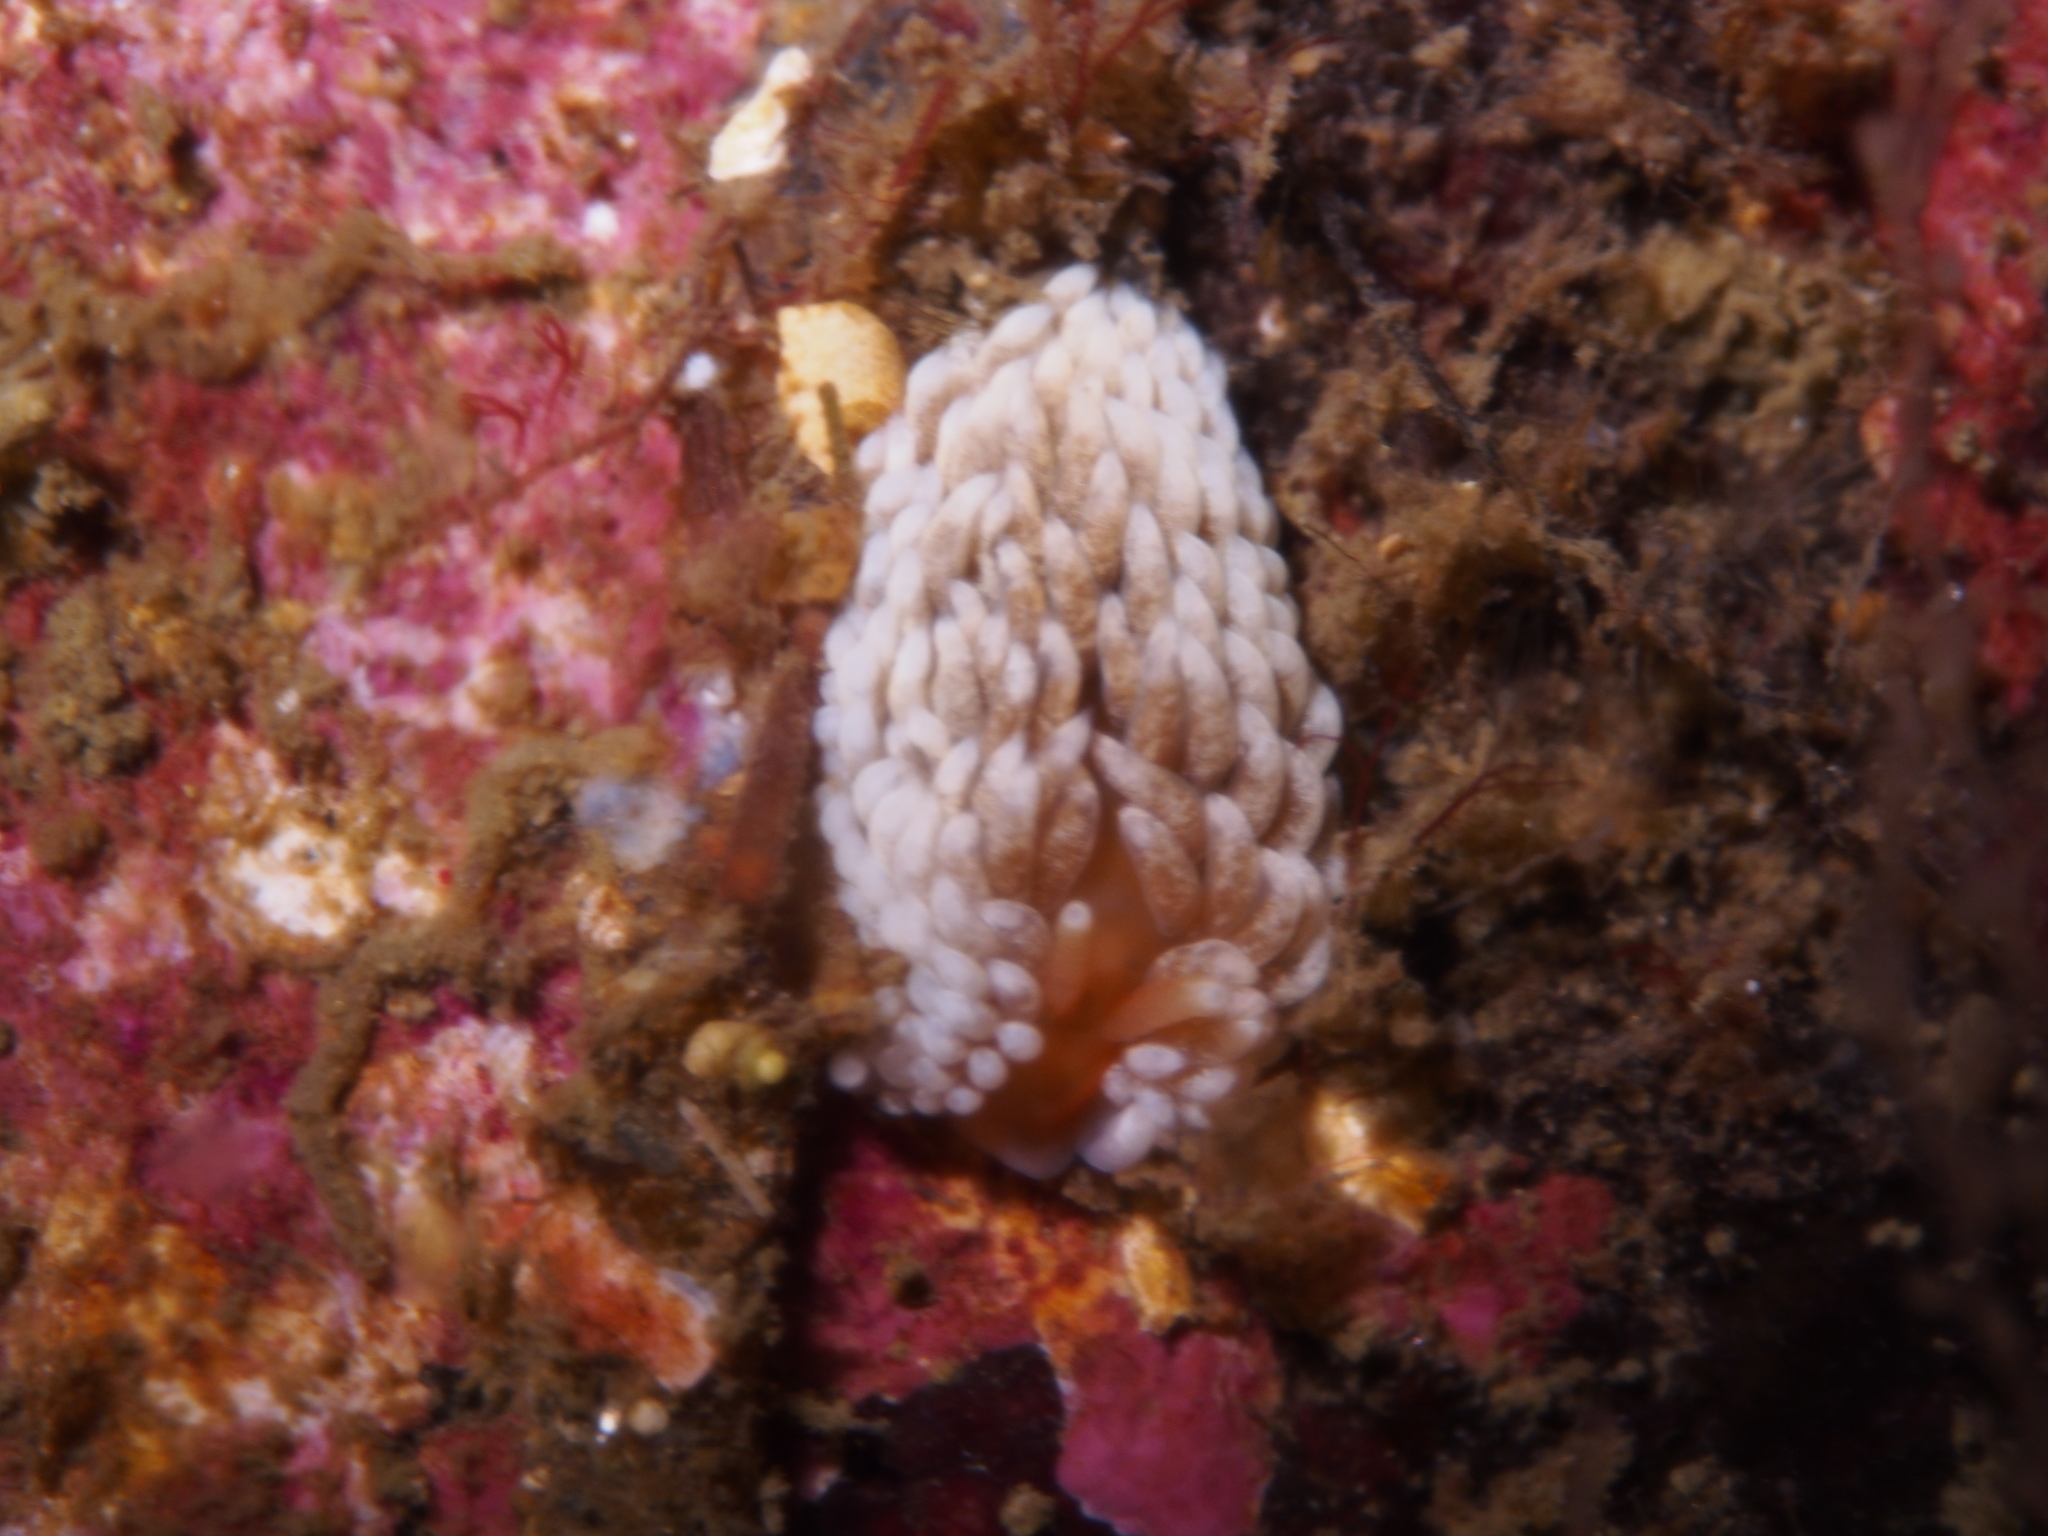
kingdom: Animalia
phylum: Mollusca
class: Gastropoda
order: Nudibranchia
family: Aeolidiidae
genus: Aeolidiella
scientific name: Aeolidiella glauca
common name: Orange-brown aeolid
